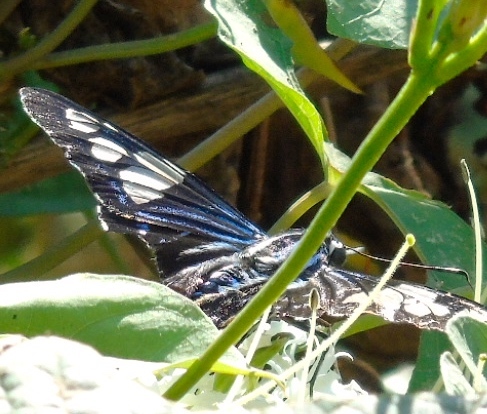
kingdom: Animalia
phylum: Arthropoda
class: Insecta
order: Lepidoptera
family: Hesperiidae
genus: Phocides
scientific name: Phocides pigmalion
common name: Mangrove skipper
